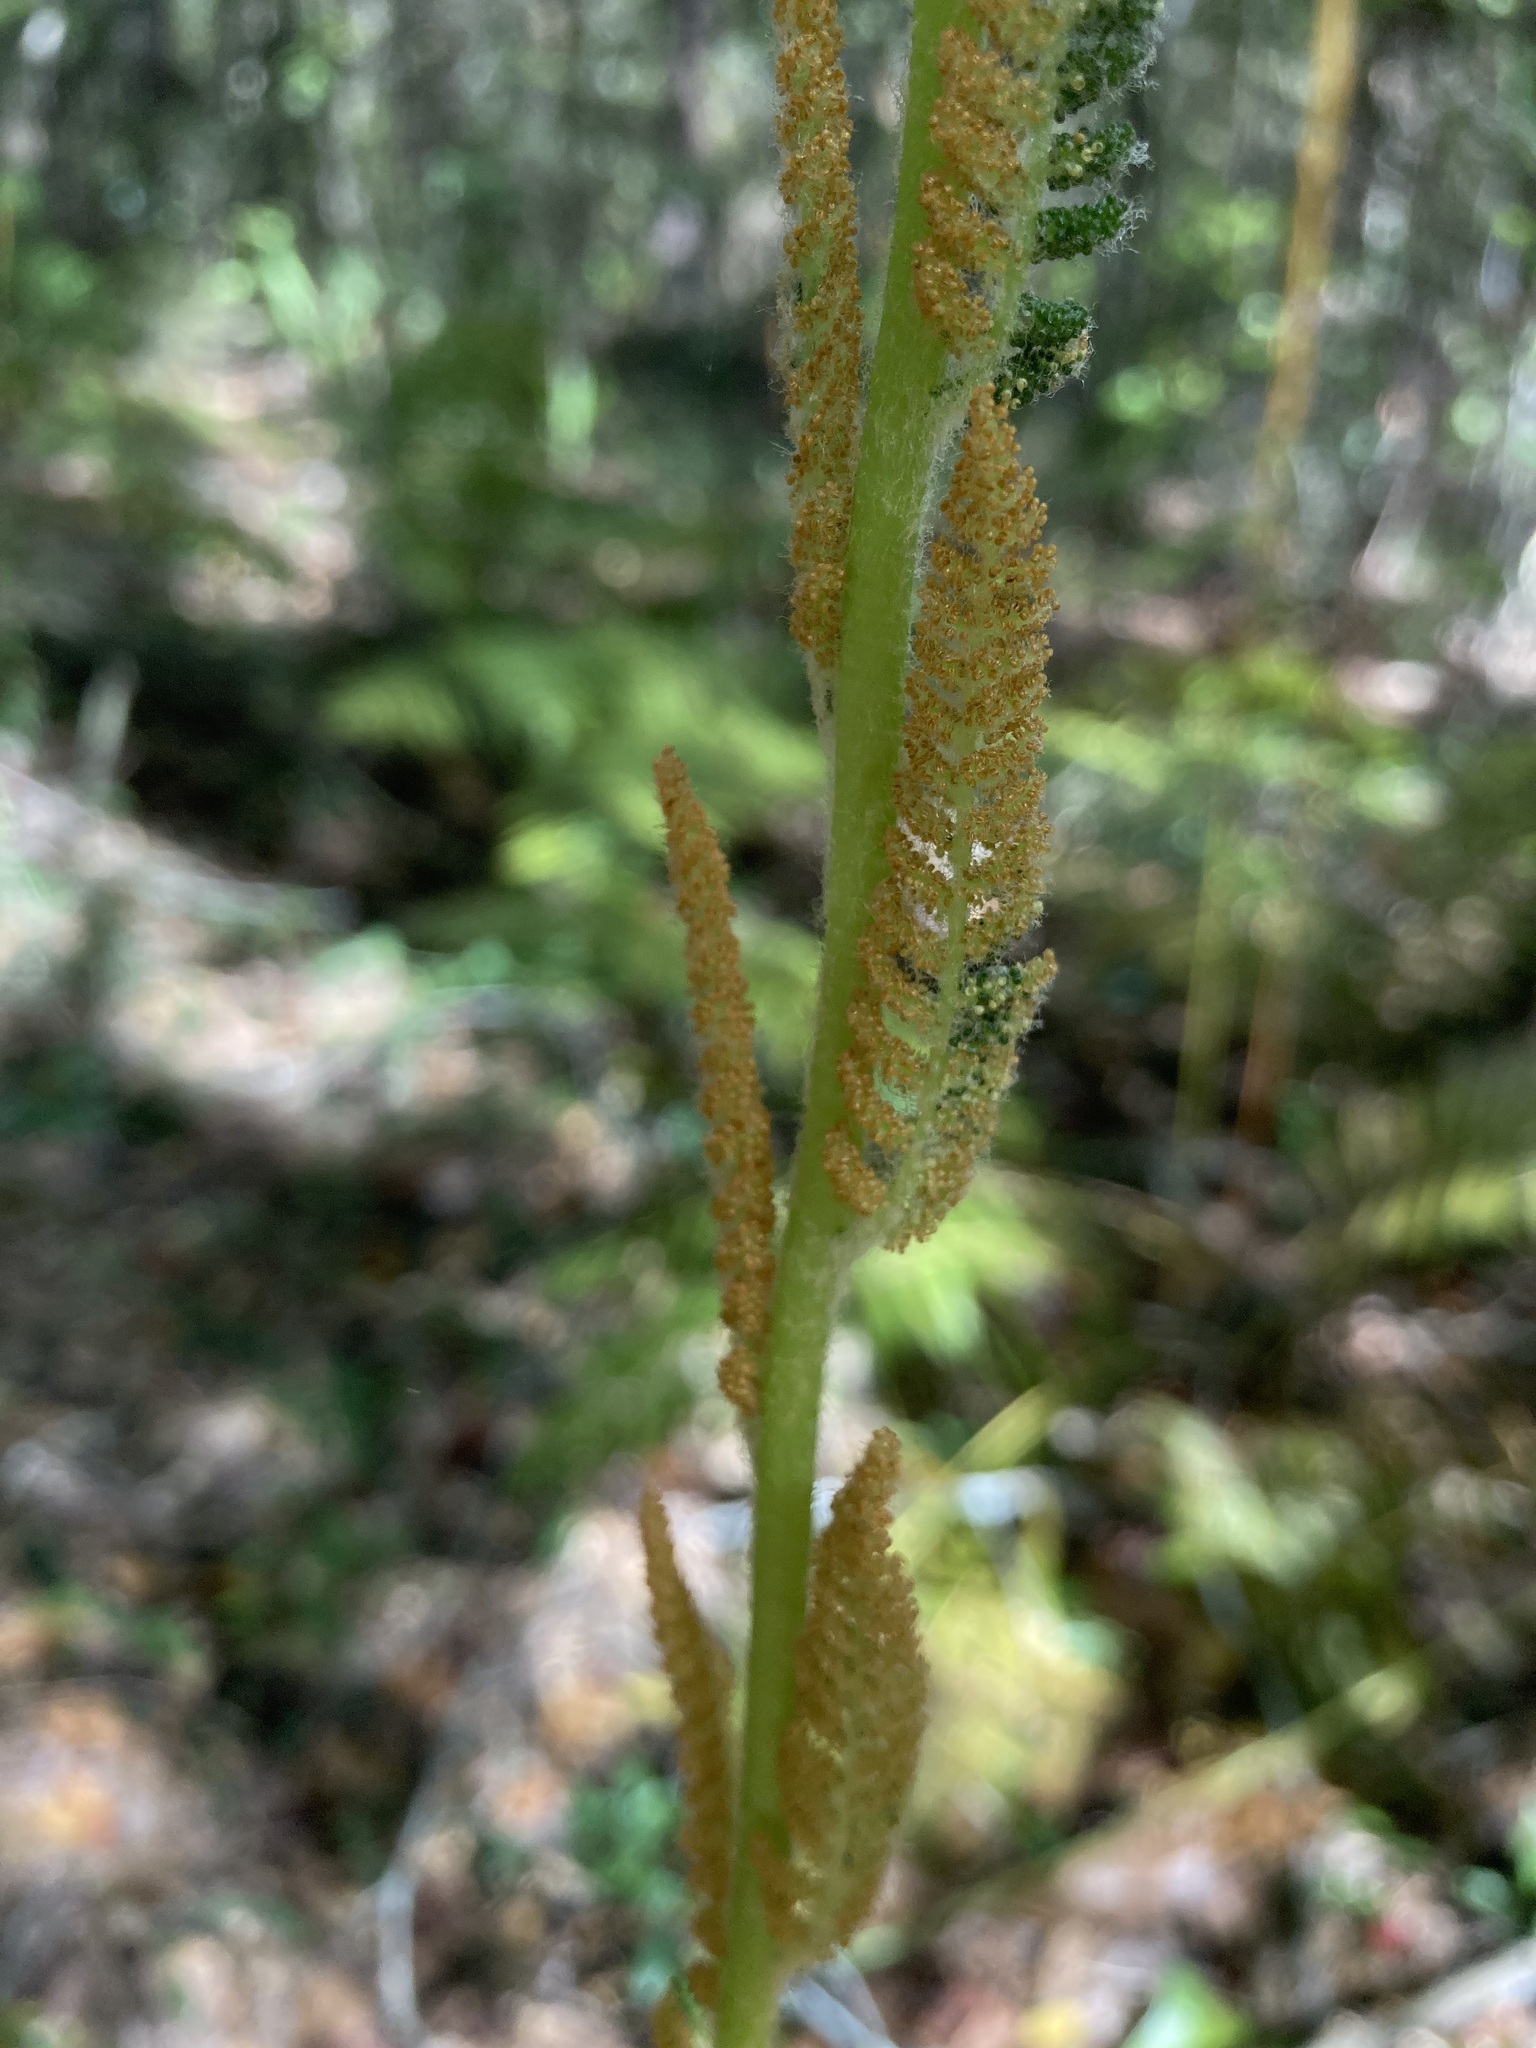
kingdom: Plantae
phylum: Tracheophyta
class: Polypodiopsida
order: Osmundales
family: Osmundaceae
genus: Osmundastrum
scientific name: Osmundastrum cinnamomeum
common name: Cinnamon fern
